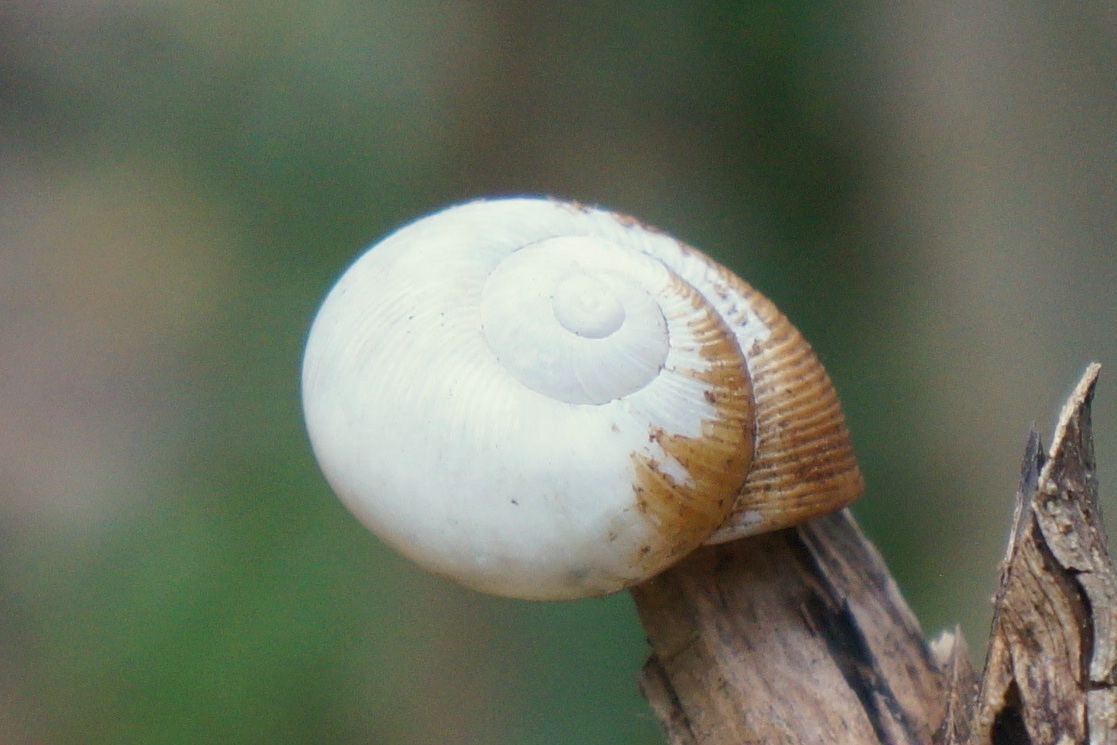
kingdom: Animalia
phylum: Mollusca
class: Gastropoda
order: Stylommatophora
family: Zachrysiidae
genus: Zachrysia
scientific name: Zachrysia provisoria
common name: Garden zachrysia
